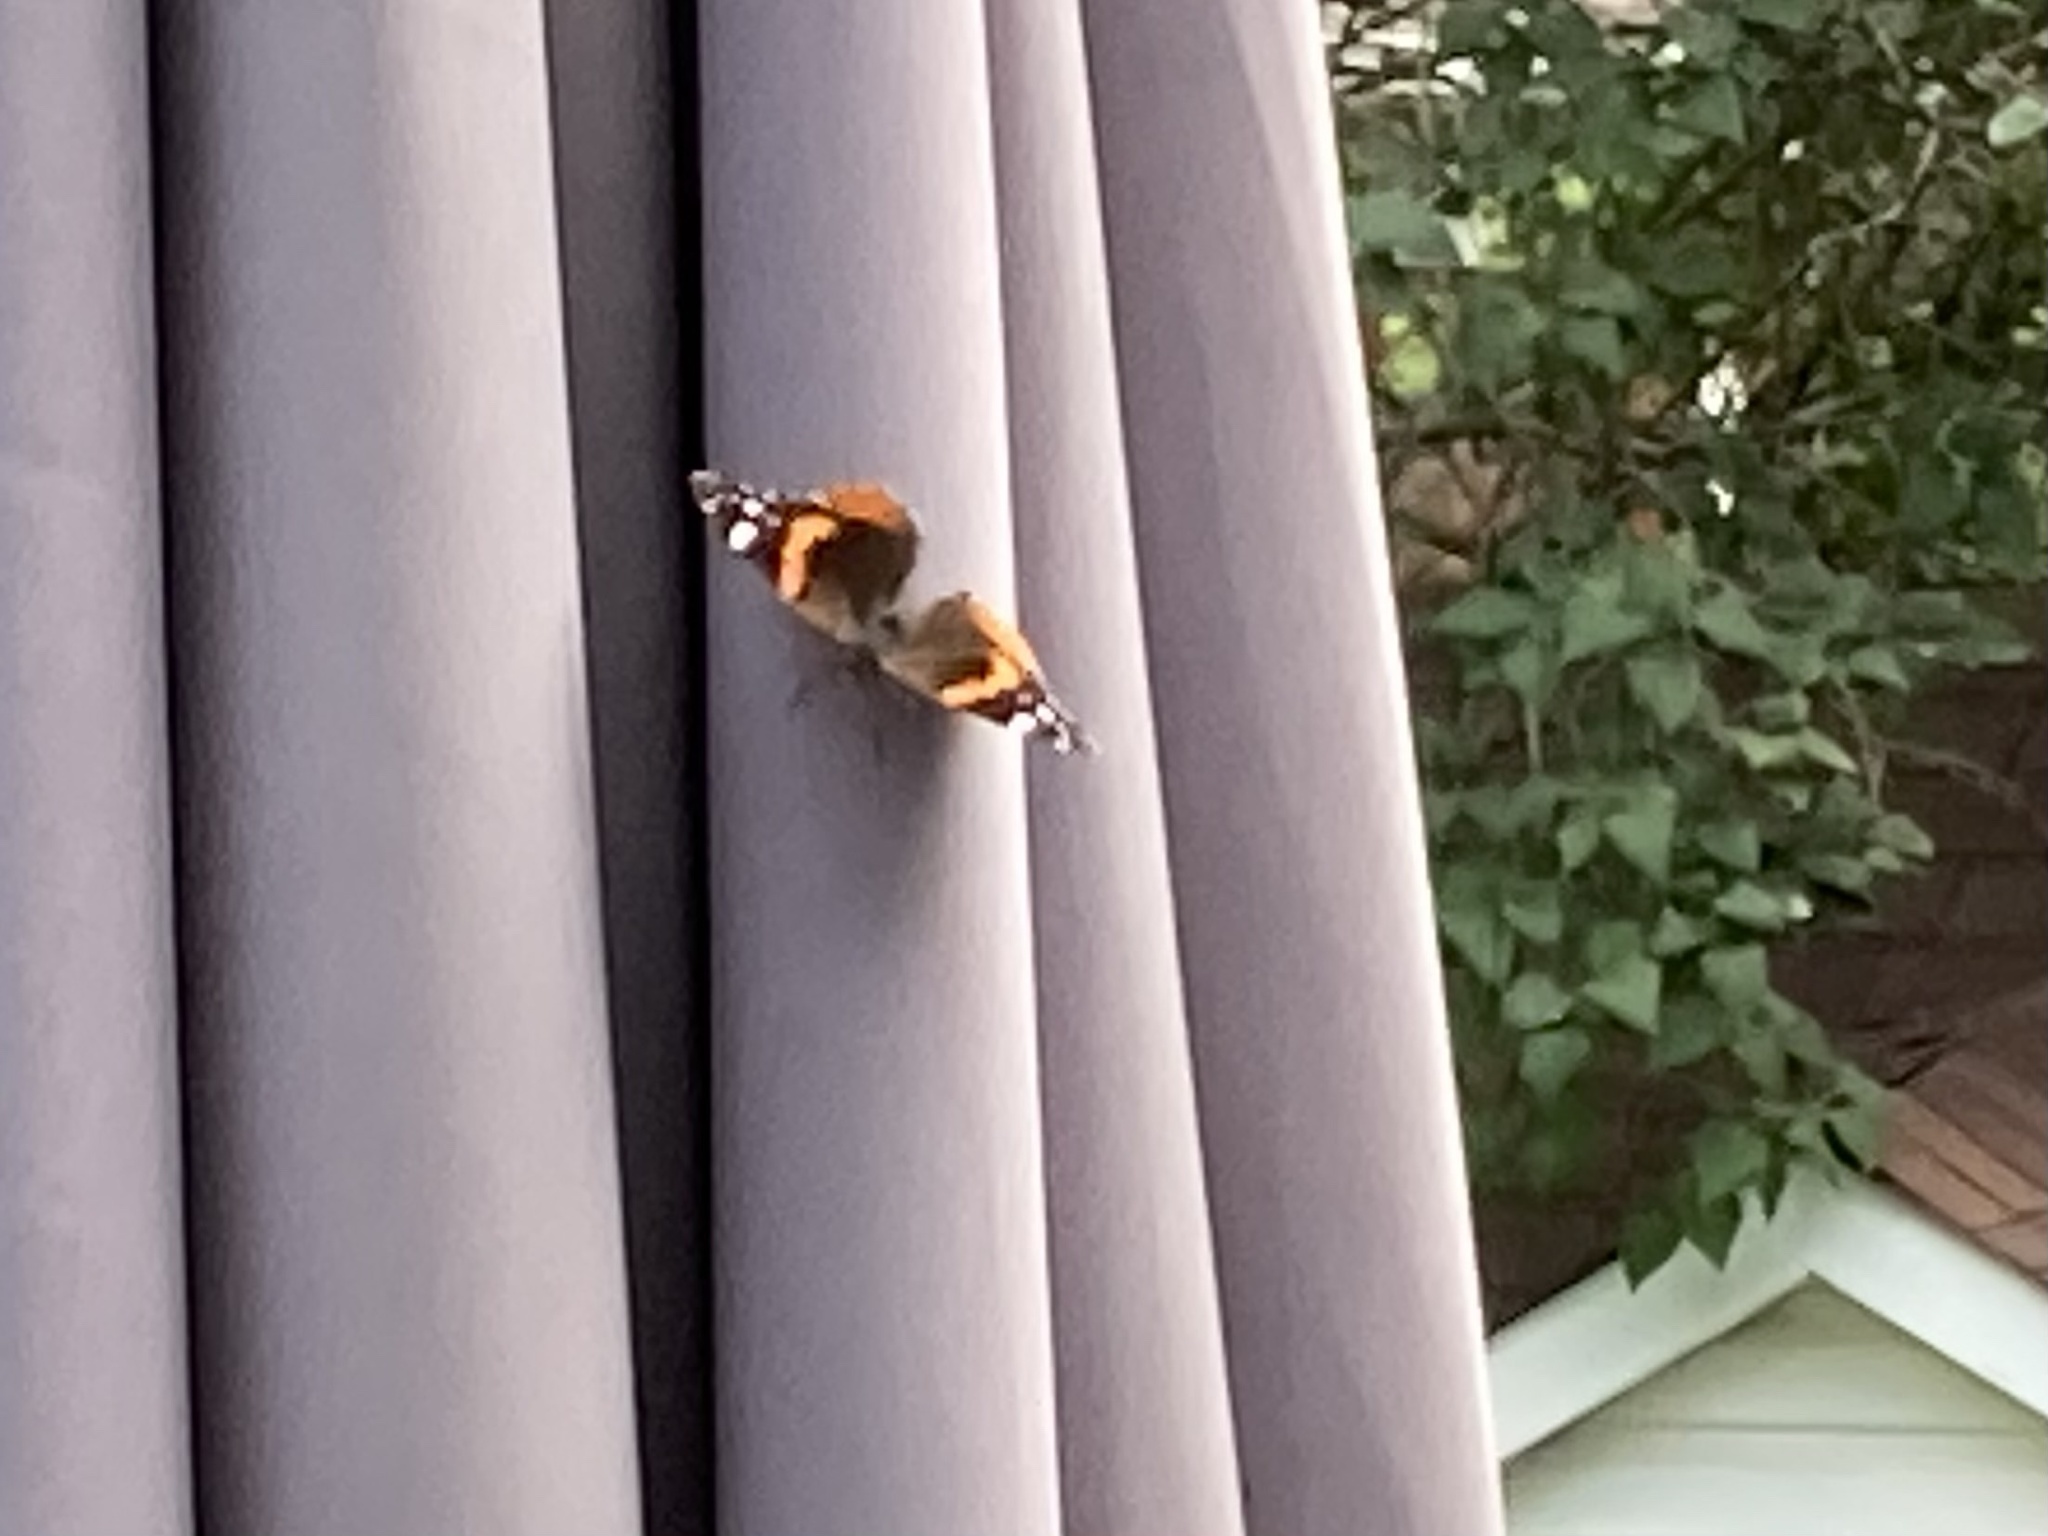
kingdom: Animalia
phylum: Arthropoda
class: Insecta
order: Lepidoptera
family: Nymphalidae
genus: Vanessa
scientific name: Vanessa atalanta
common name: Red admiral
